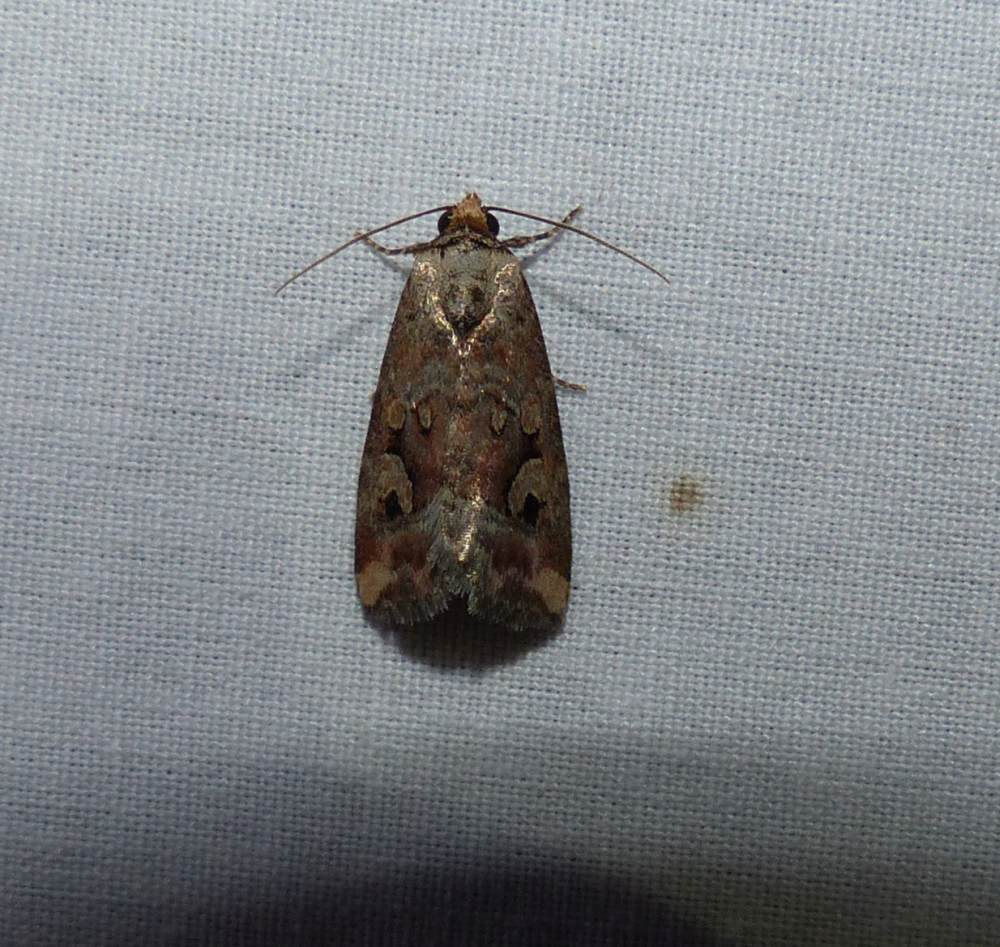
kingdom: Animalia
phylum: Arthropoda
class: Insecta
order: Lepidoptera
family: Noctuidae
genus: Elaphria
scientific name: Elaphria alapallida
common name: Pale-winged midget
